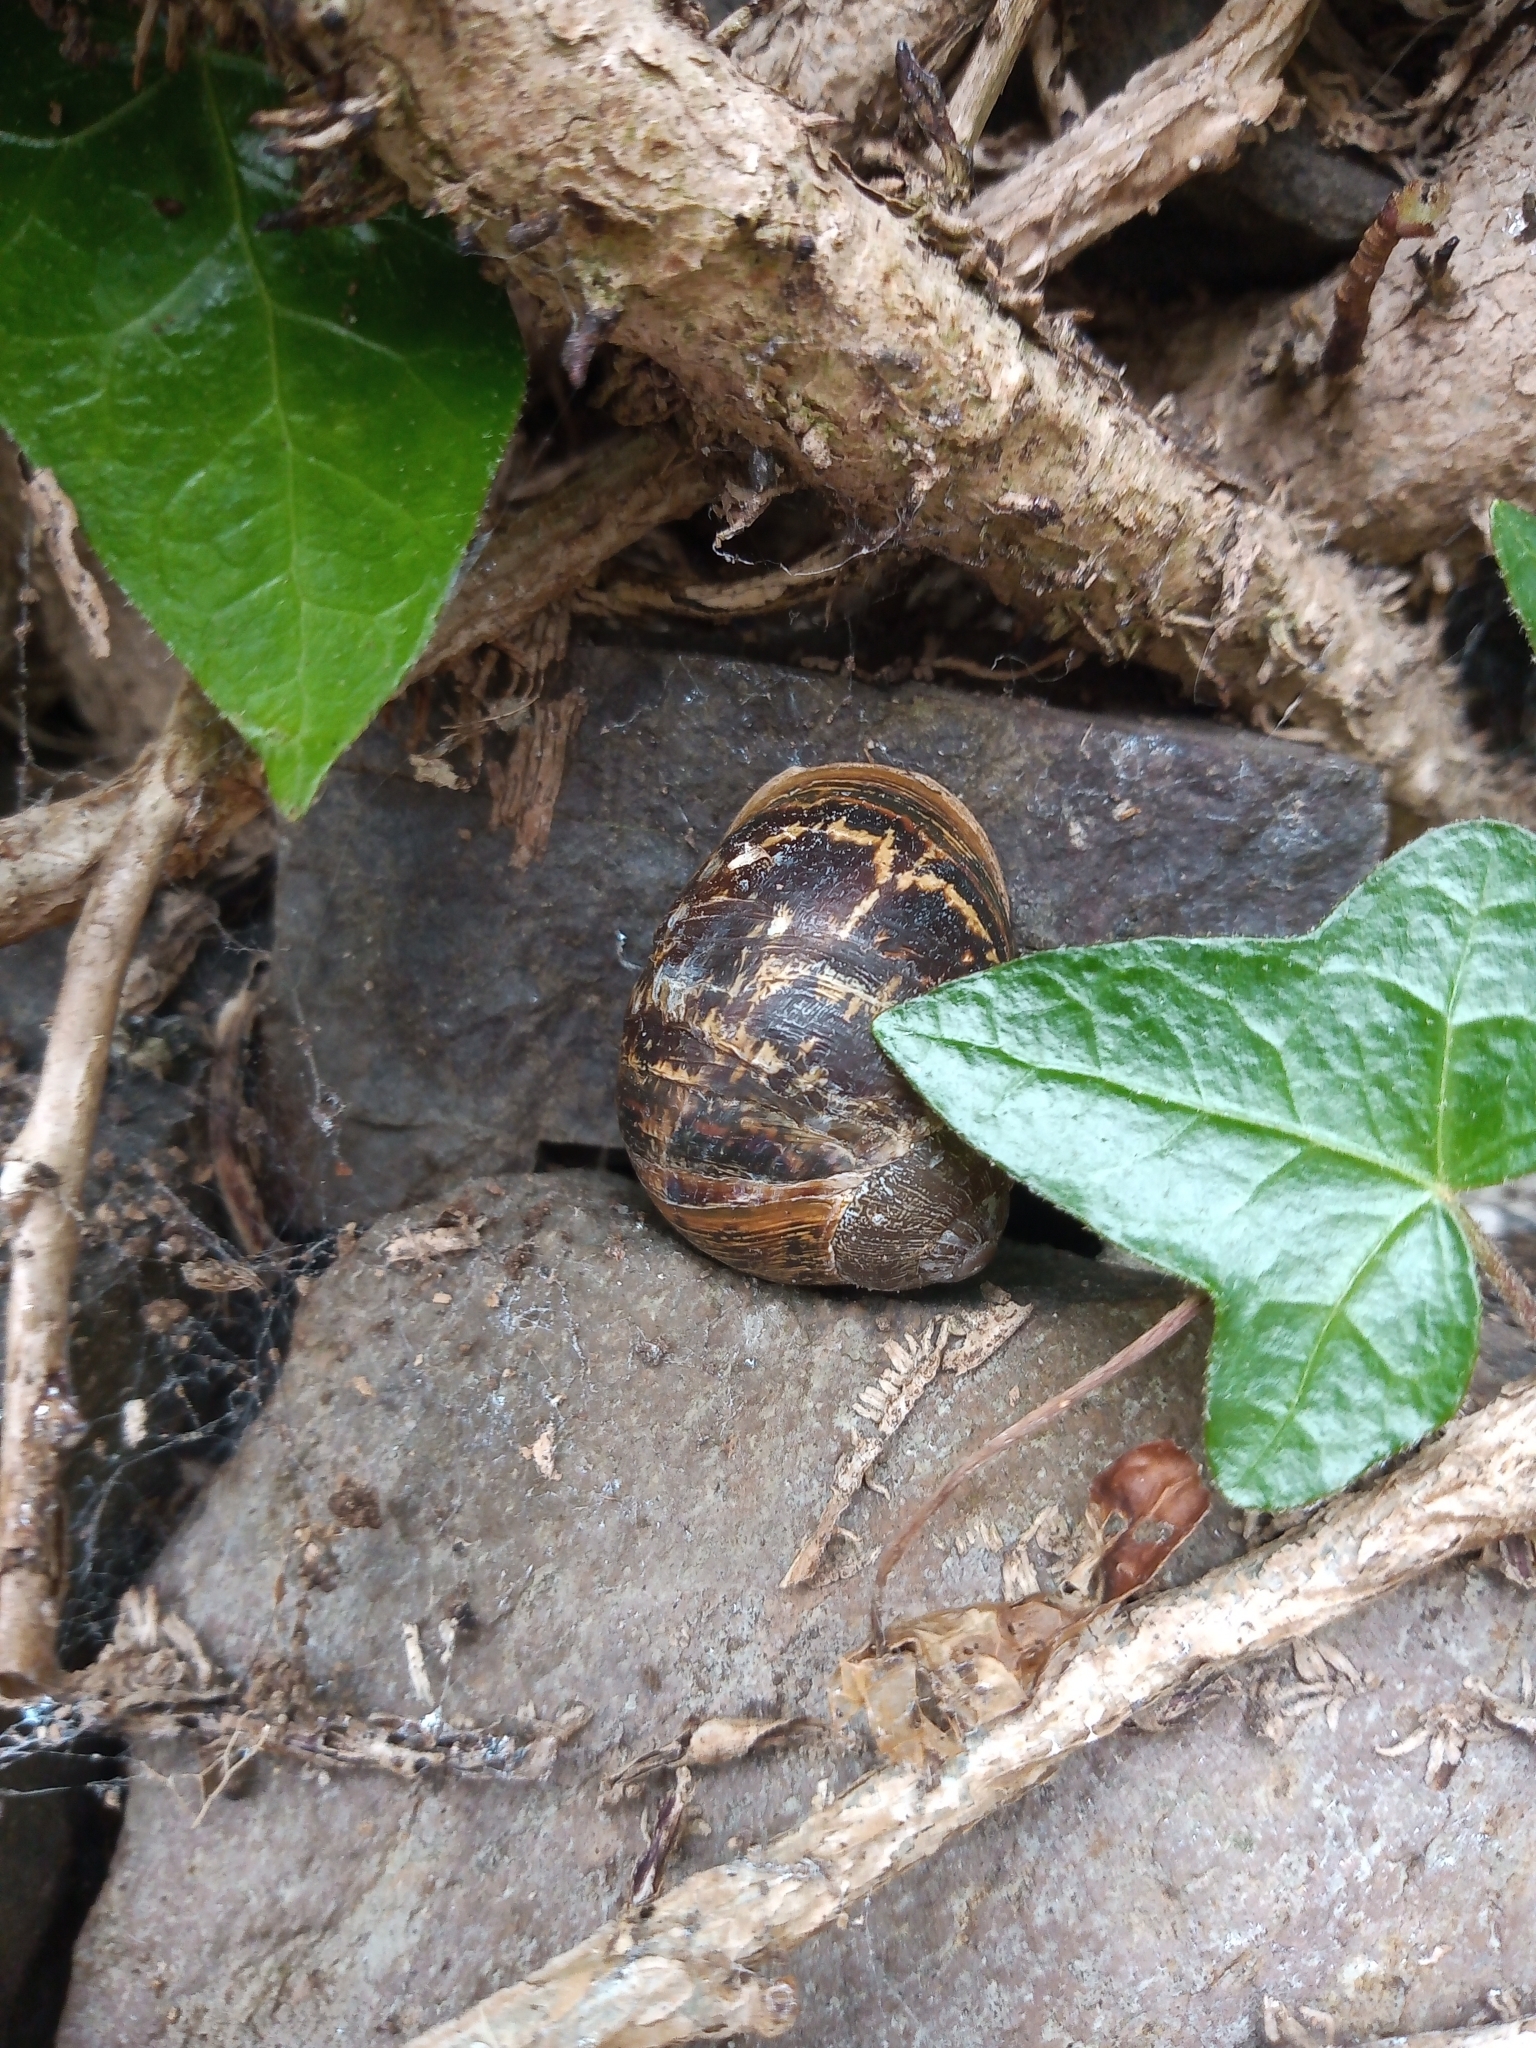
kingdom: Animalia
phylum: Mollusca
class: Gastropoda
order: Stylommatophora
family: Helicidae
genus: Cornu
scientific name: Cornu aspersum
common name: Brown garden snail
